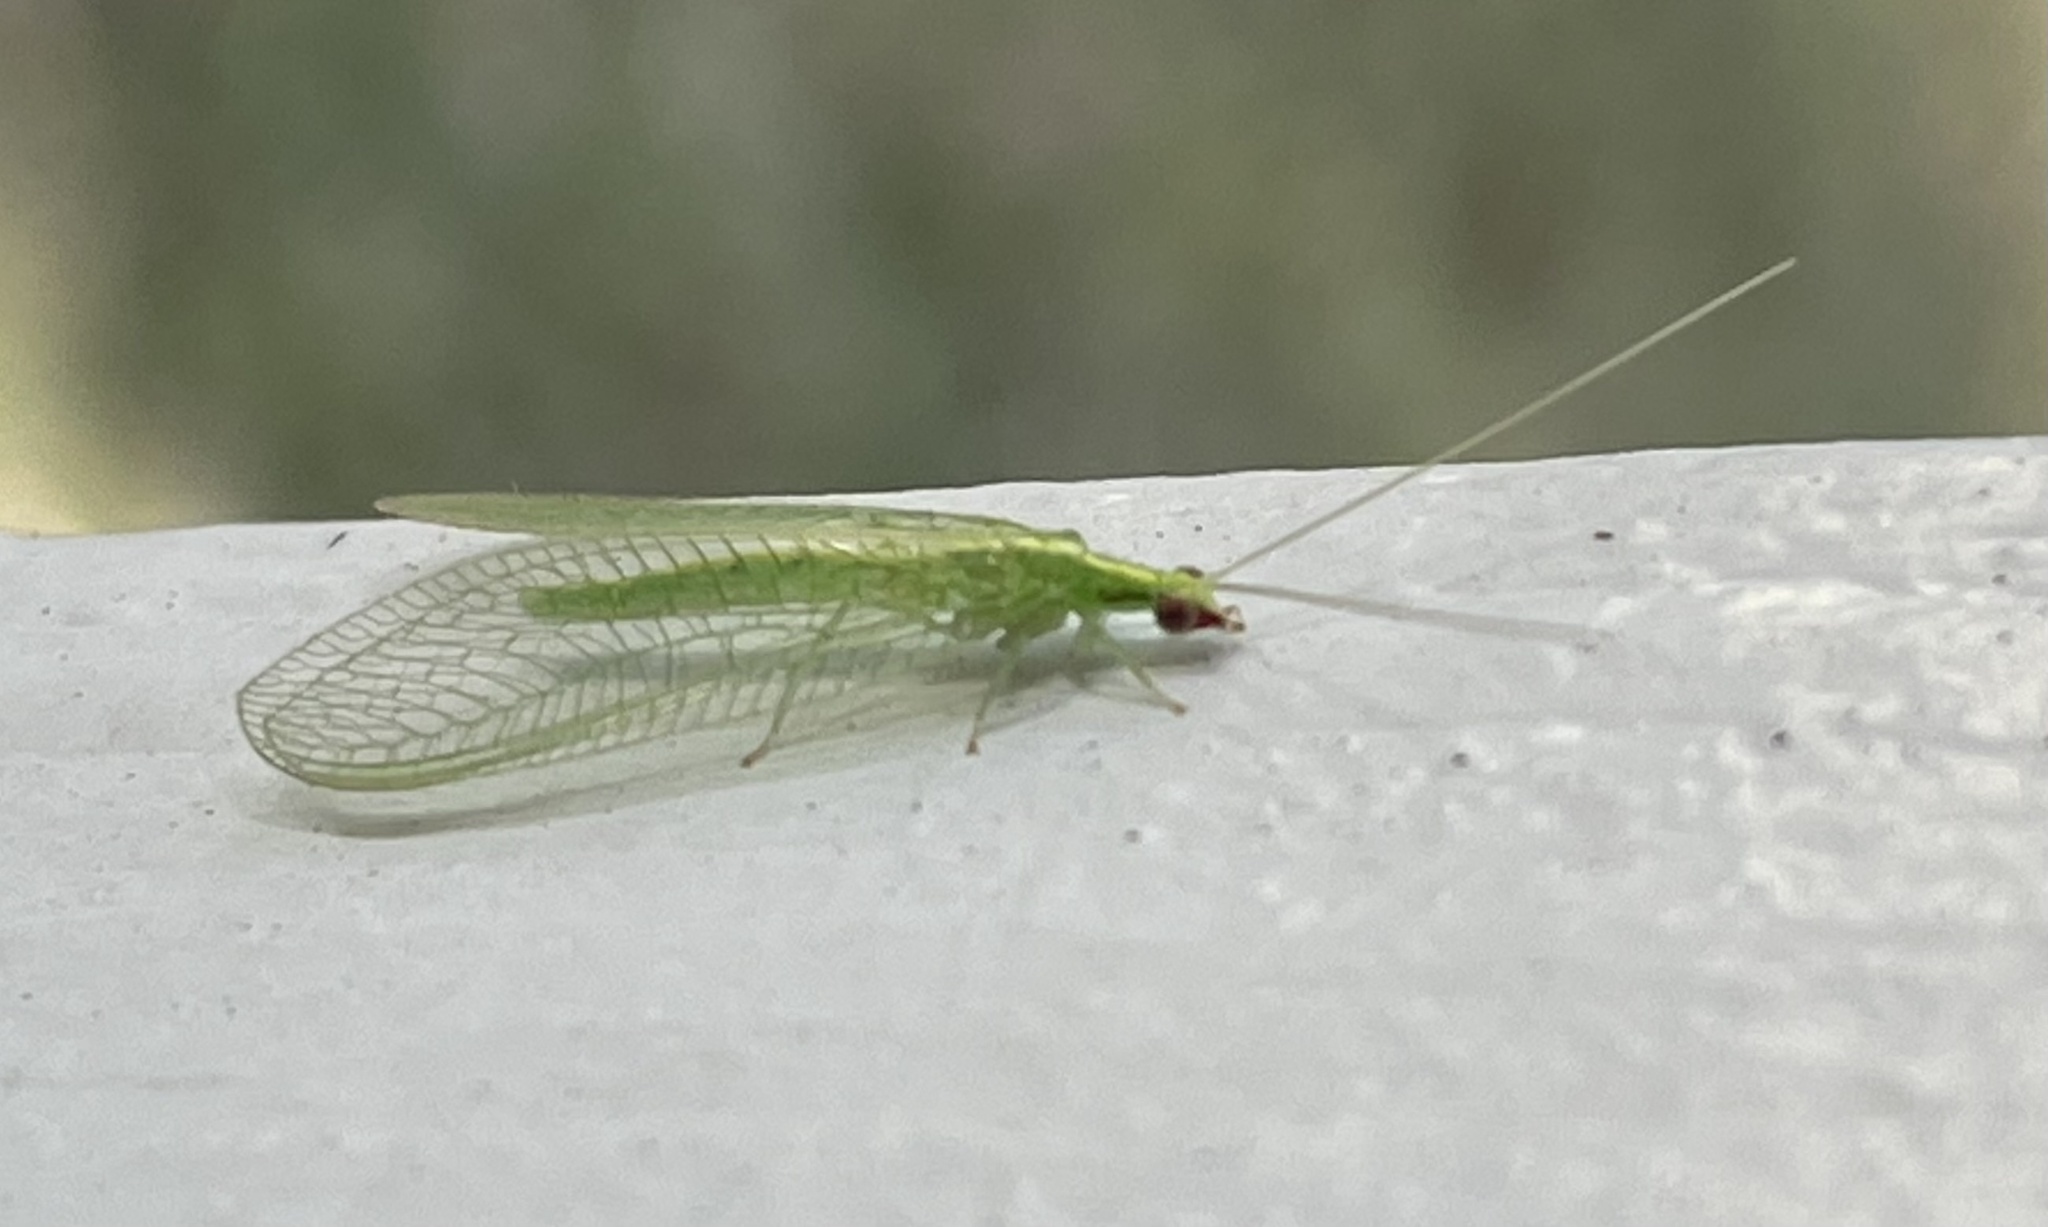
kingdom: Animalia
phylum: Arthropoda
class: Insecta
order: Neuroptera
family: Chrysopidae
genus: Chrysoperla
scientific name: Chrysoperla rufilabris
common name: Red-lipped green lacewing
